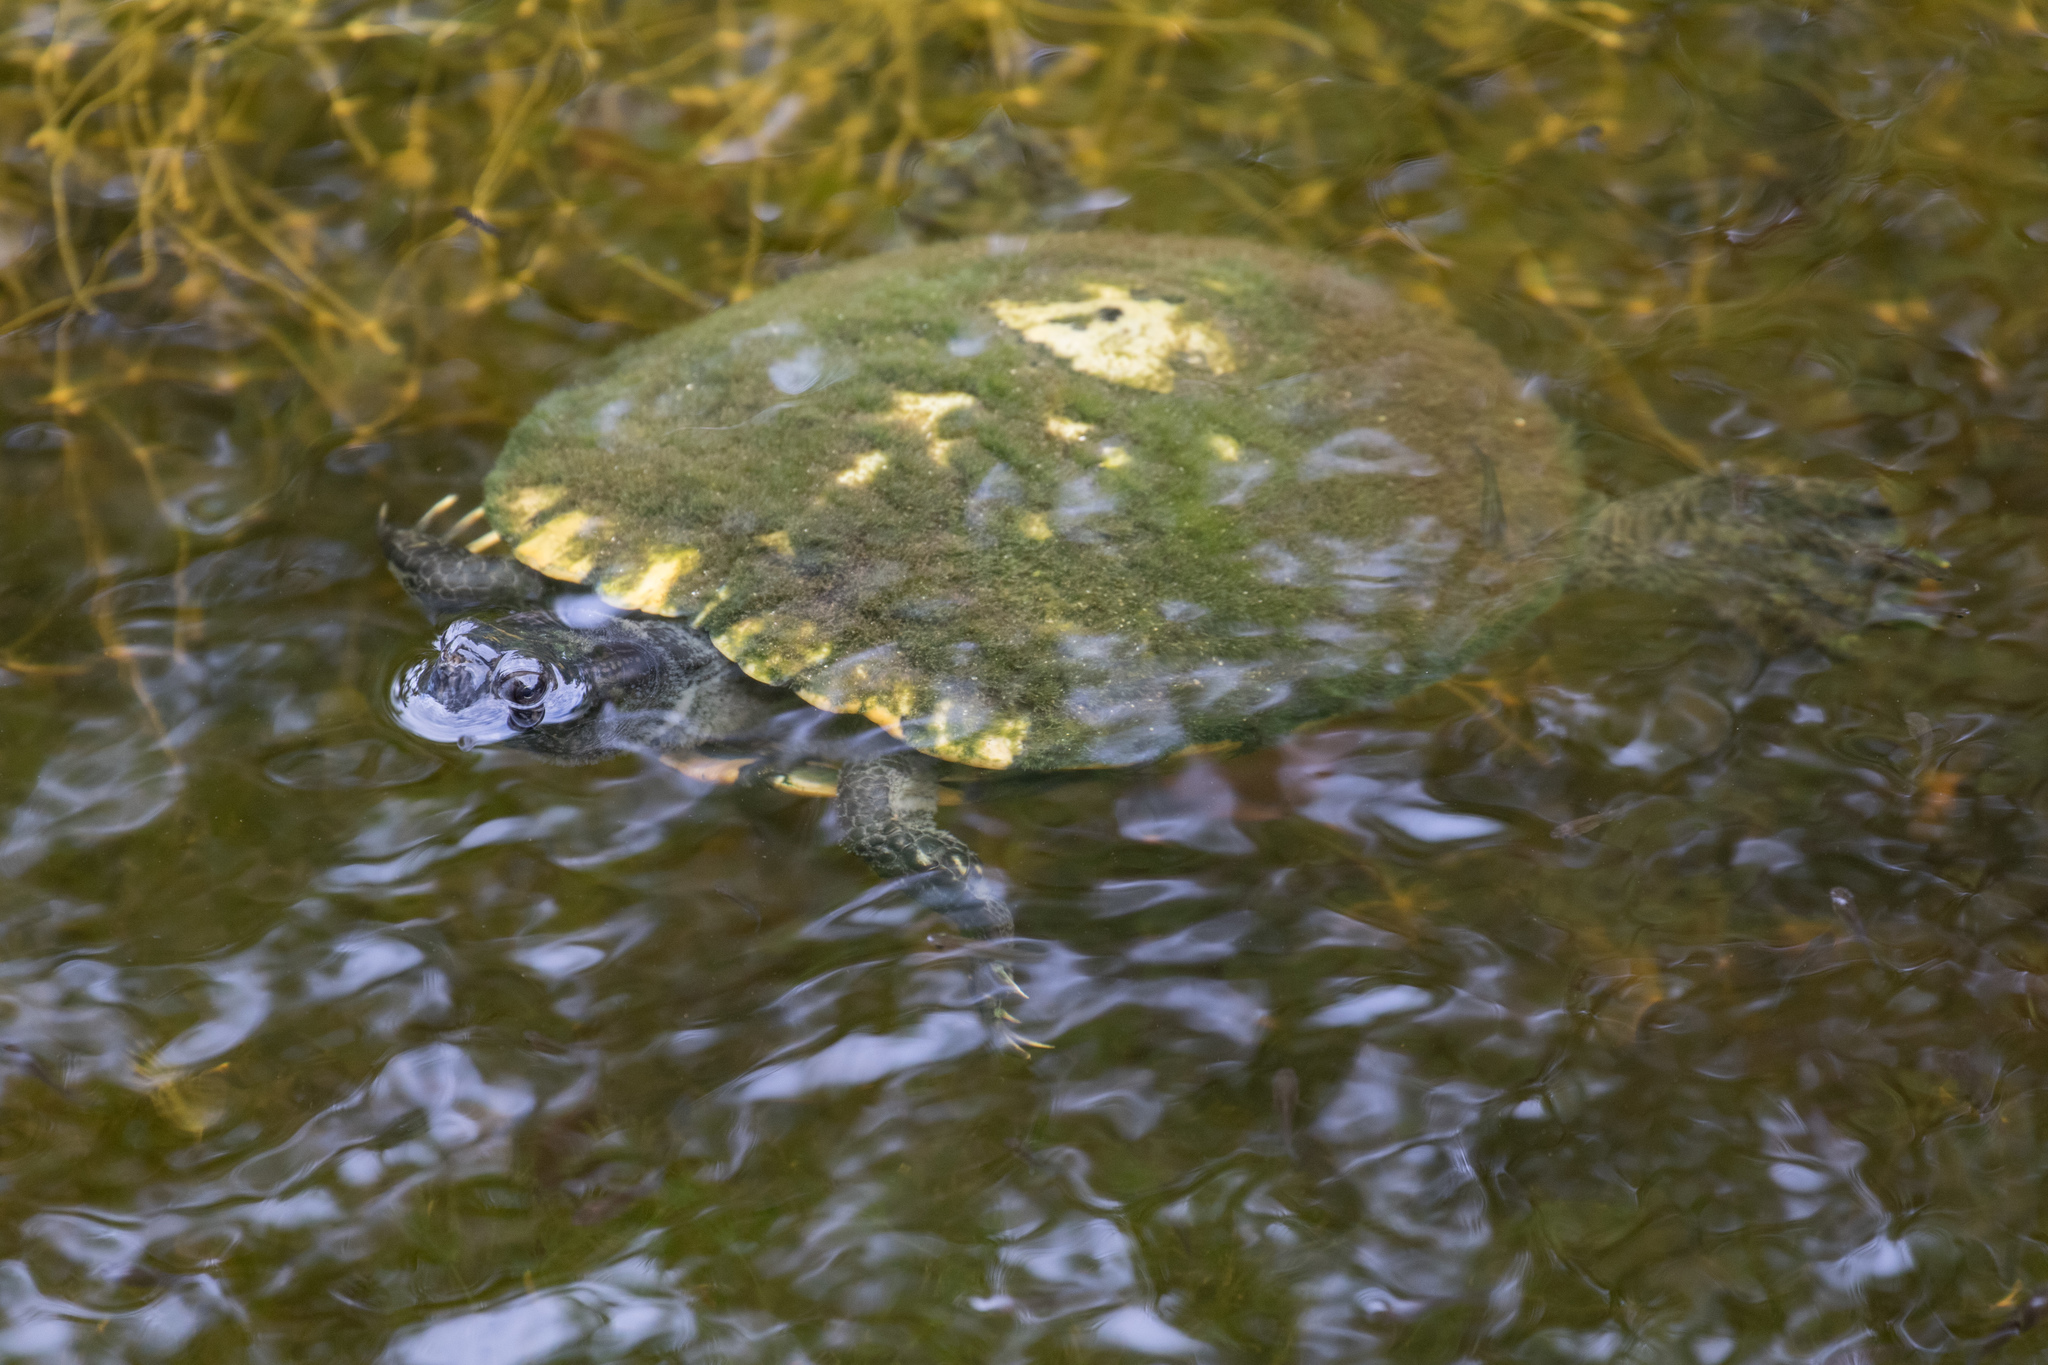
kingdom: Animalia
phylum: Chordata
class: Testudines
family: Emydidae
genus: Trachemys
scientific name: Trachemys scripta
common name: Slider
